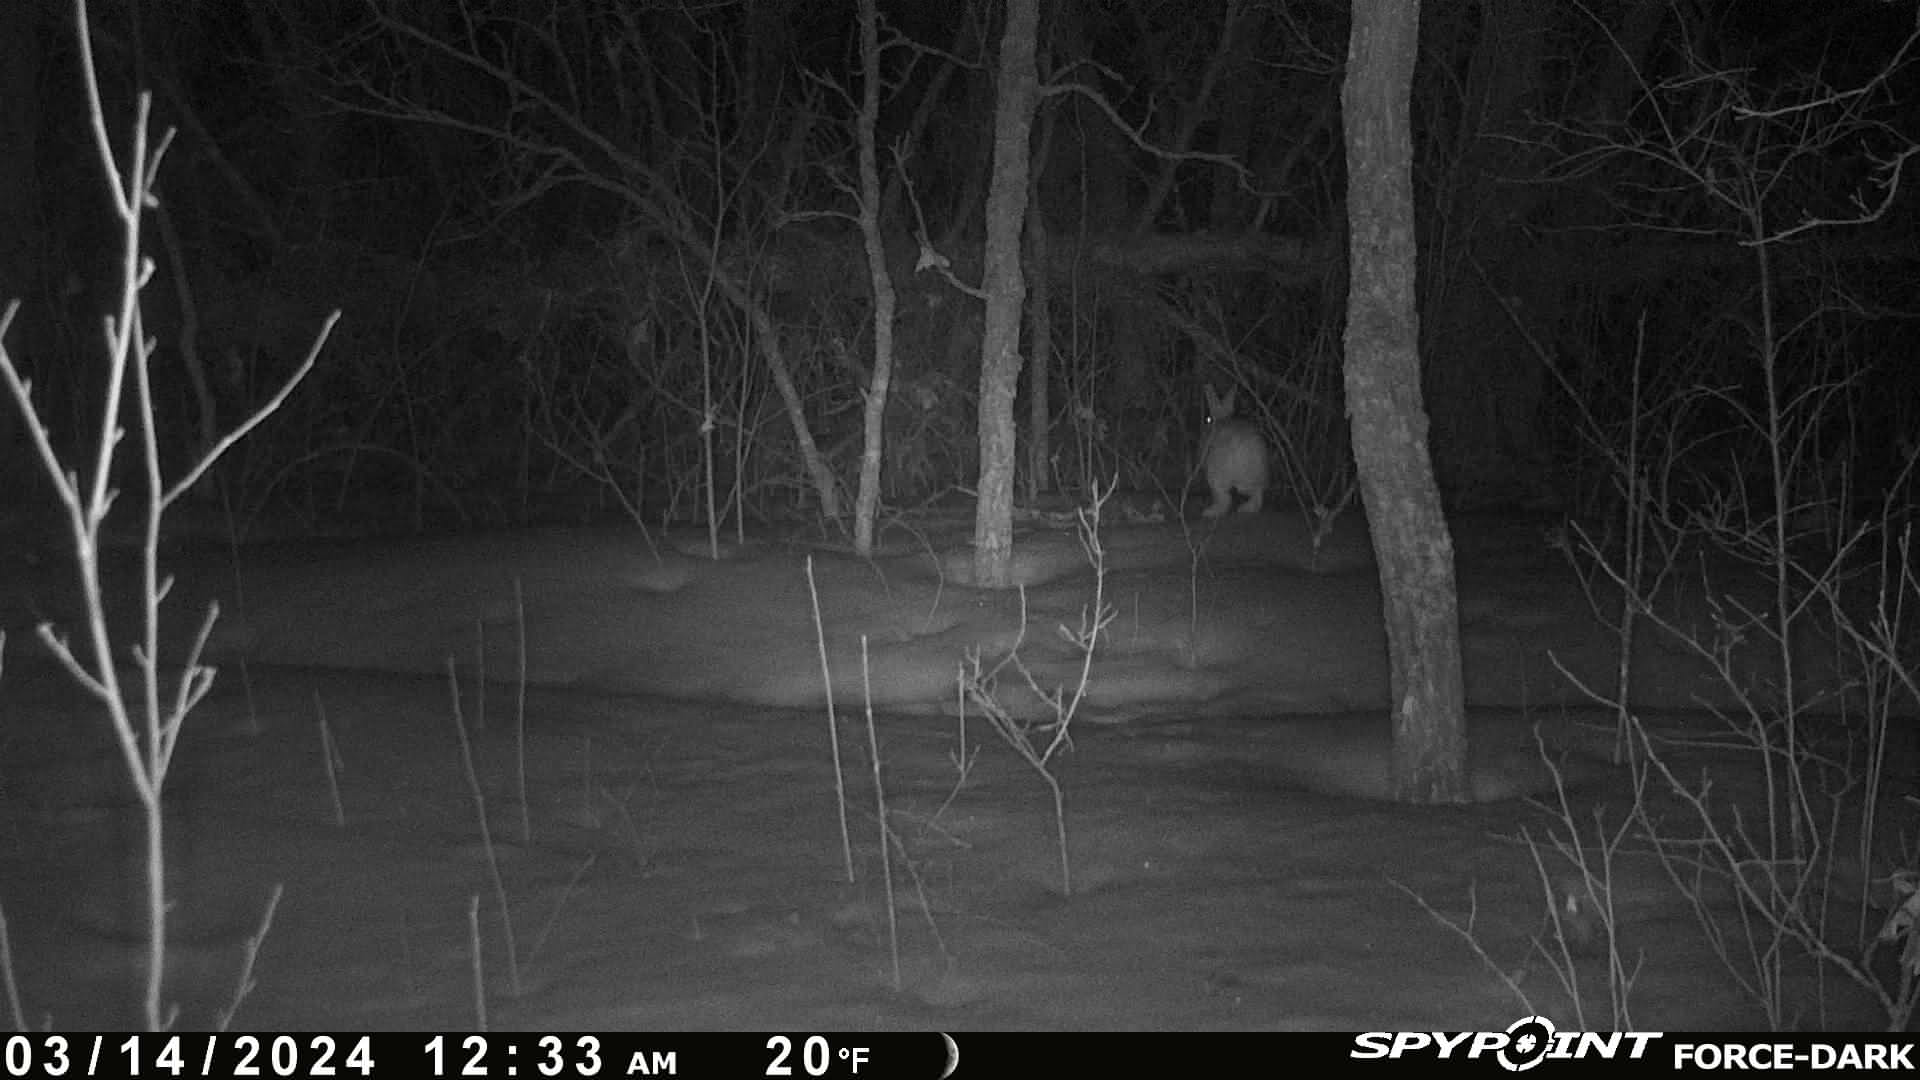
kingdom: Animalia
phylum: Chordata
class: Mammalia
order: Lagomorpha
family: Leporidae
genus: Lepus
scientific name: Lepus americanus
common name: Snowshoe hare
